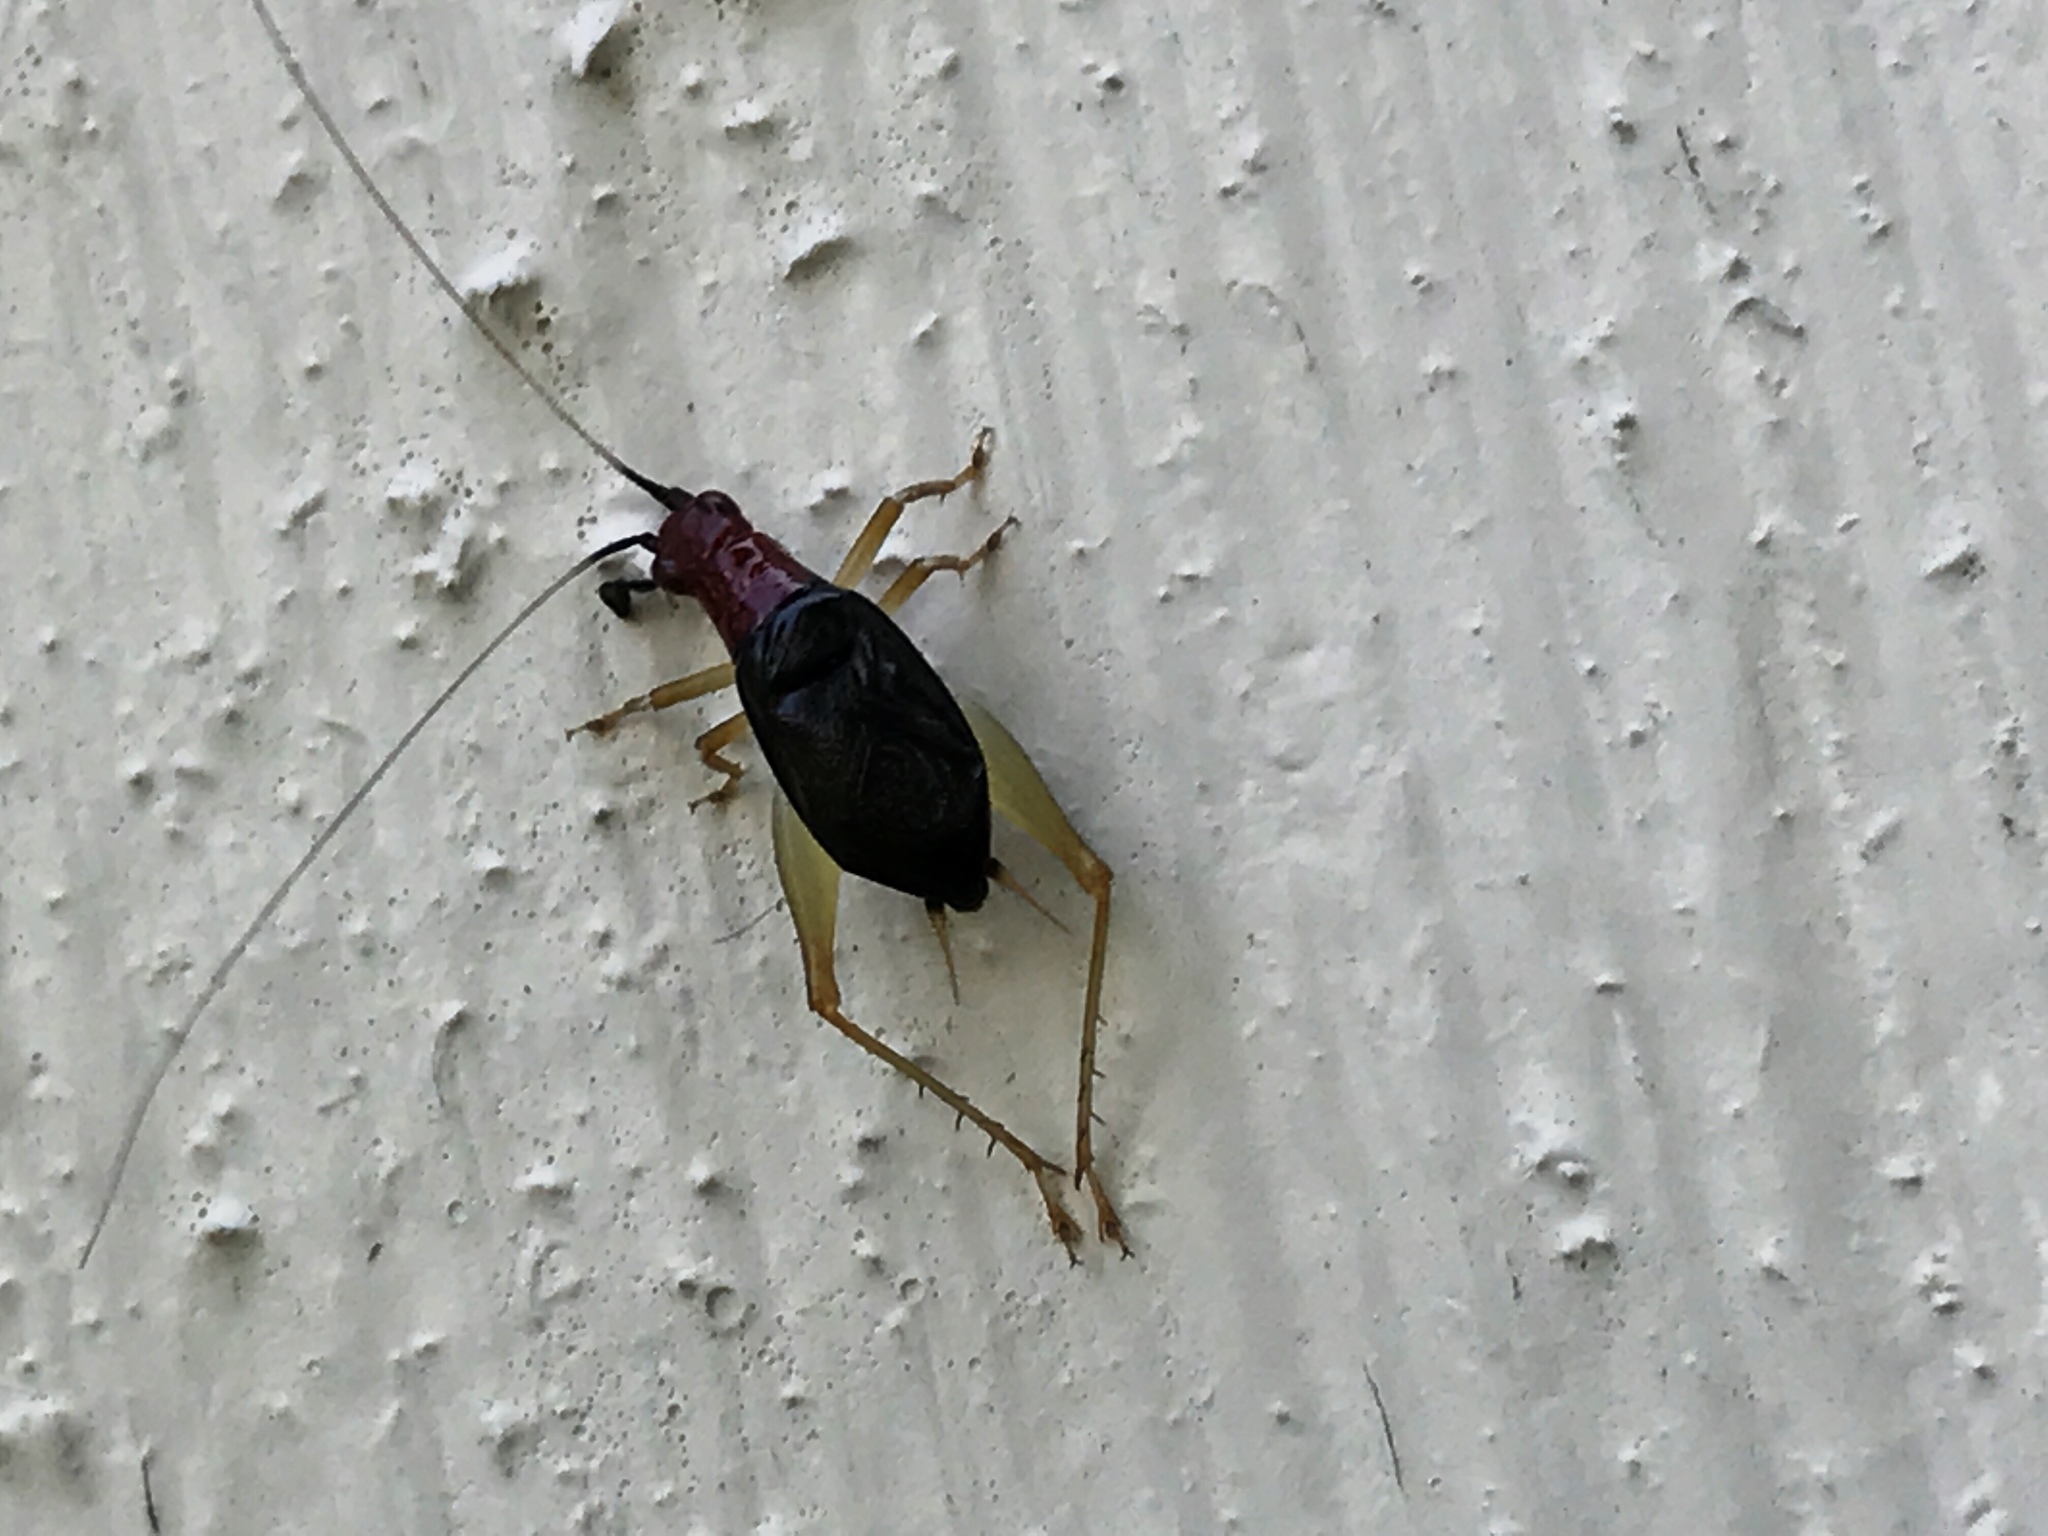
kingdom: Animalia
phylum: Arthropoda
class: Insecta
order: Orthoptera
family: Trigonidiidae
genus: Phyllopalpus
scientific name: Phyllopalpus pulchellus
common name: Handsome trig
